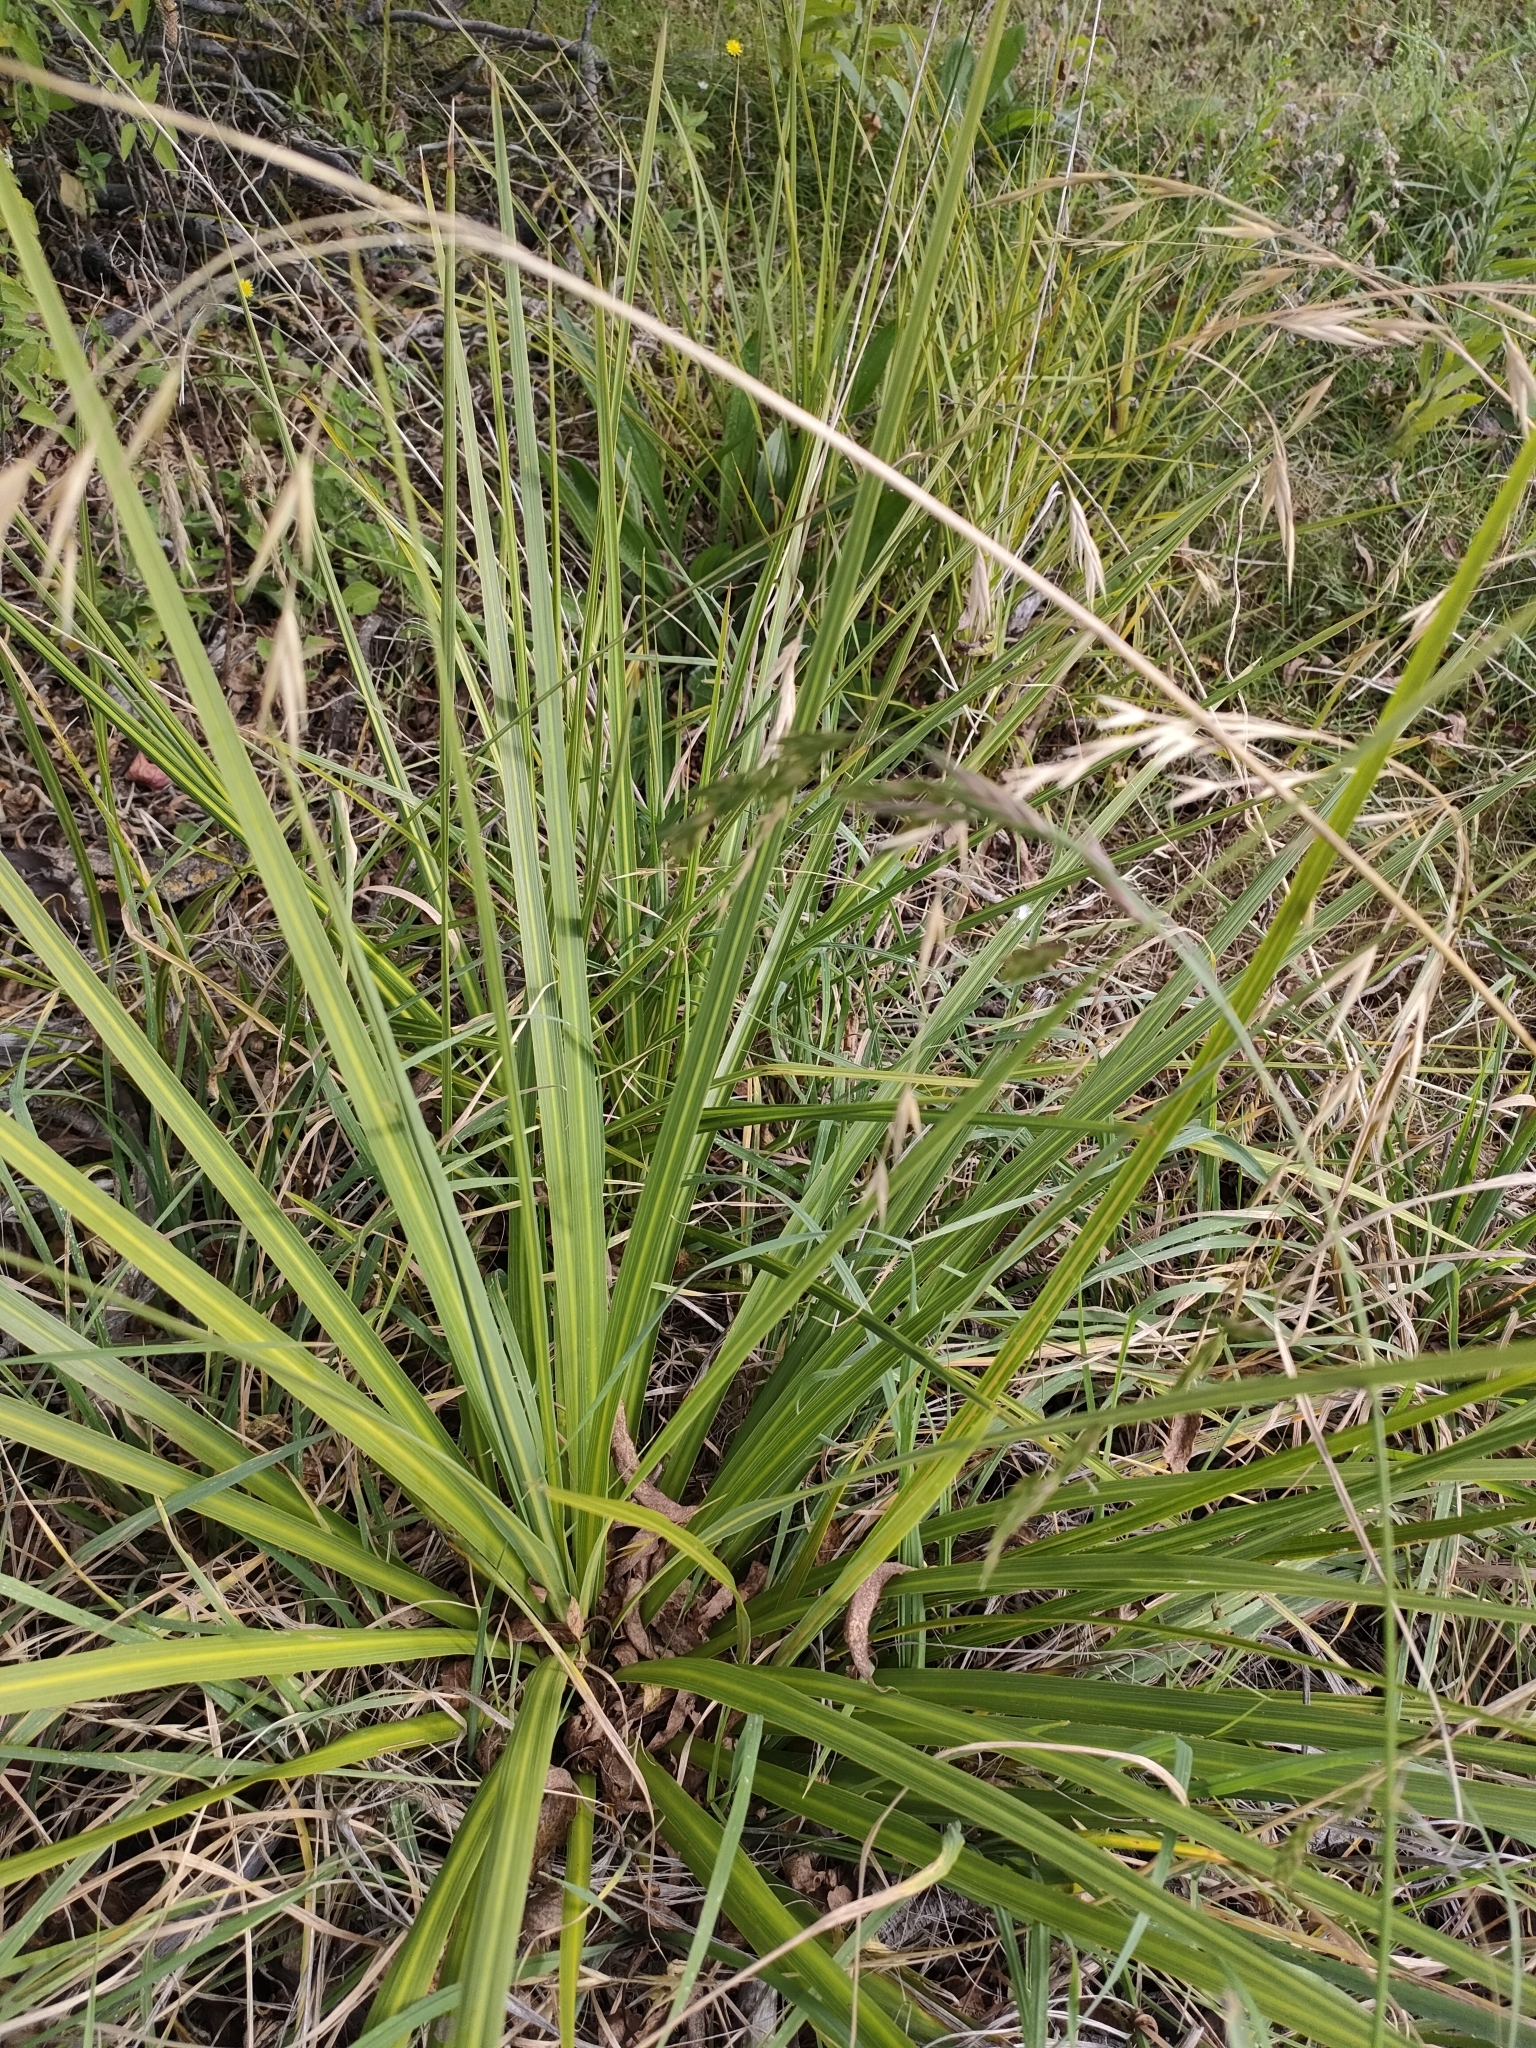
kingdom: Plantae
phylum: Tracheophyta
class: Liliopsida
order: Asparagales
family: Asparagaceae
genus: Cordyline
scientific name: Cordyline australis
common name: Cabbage-palm
